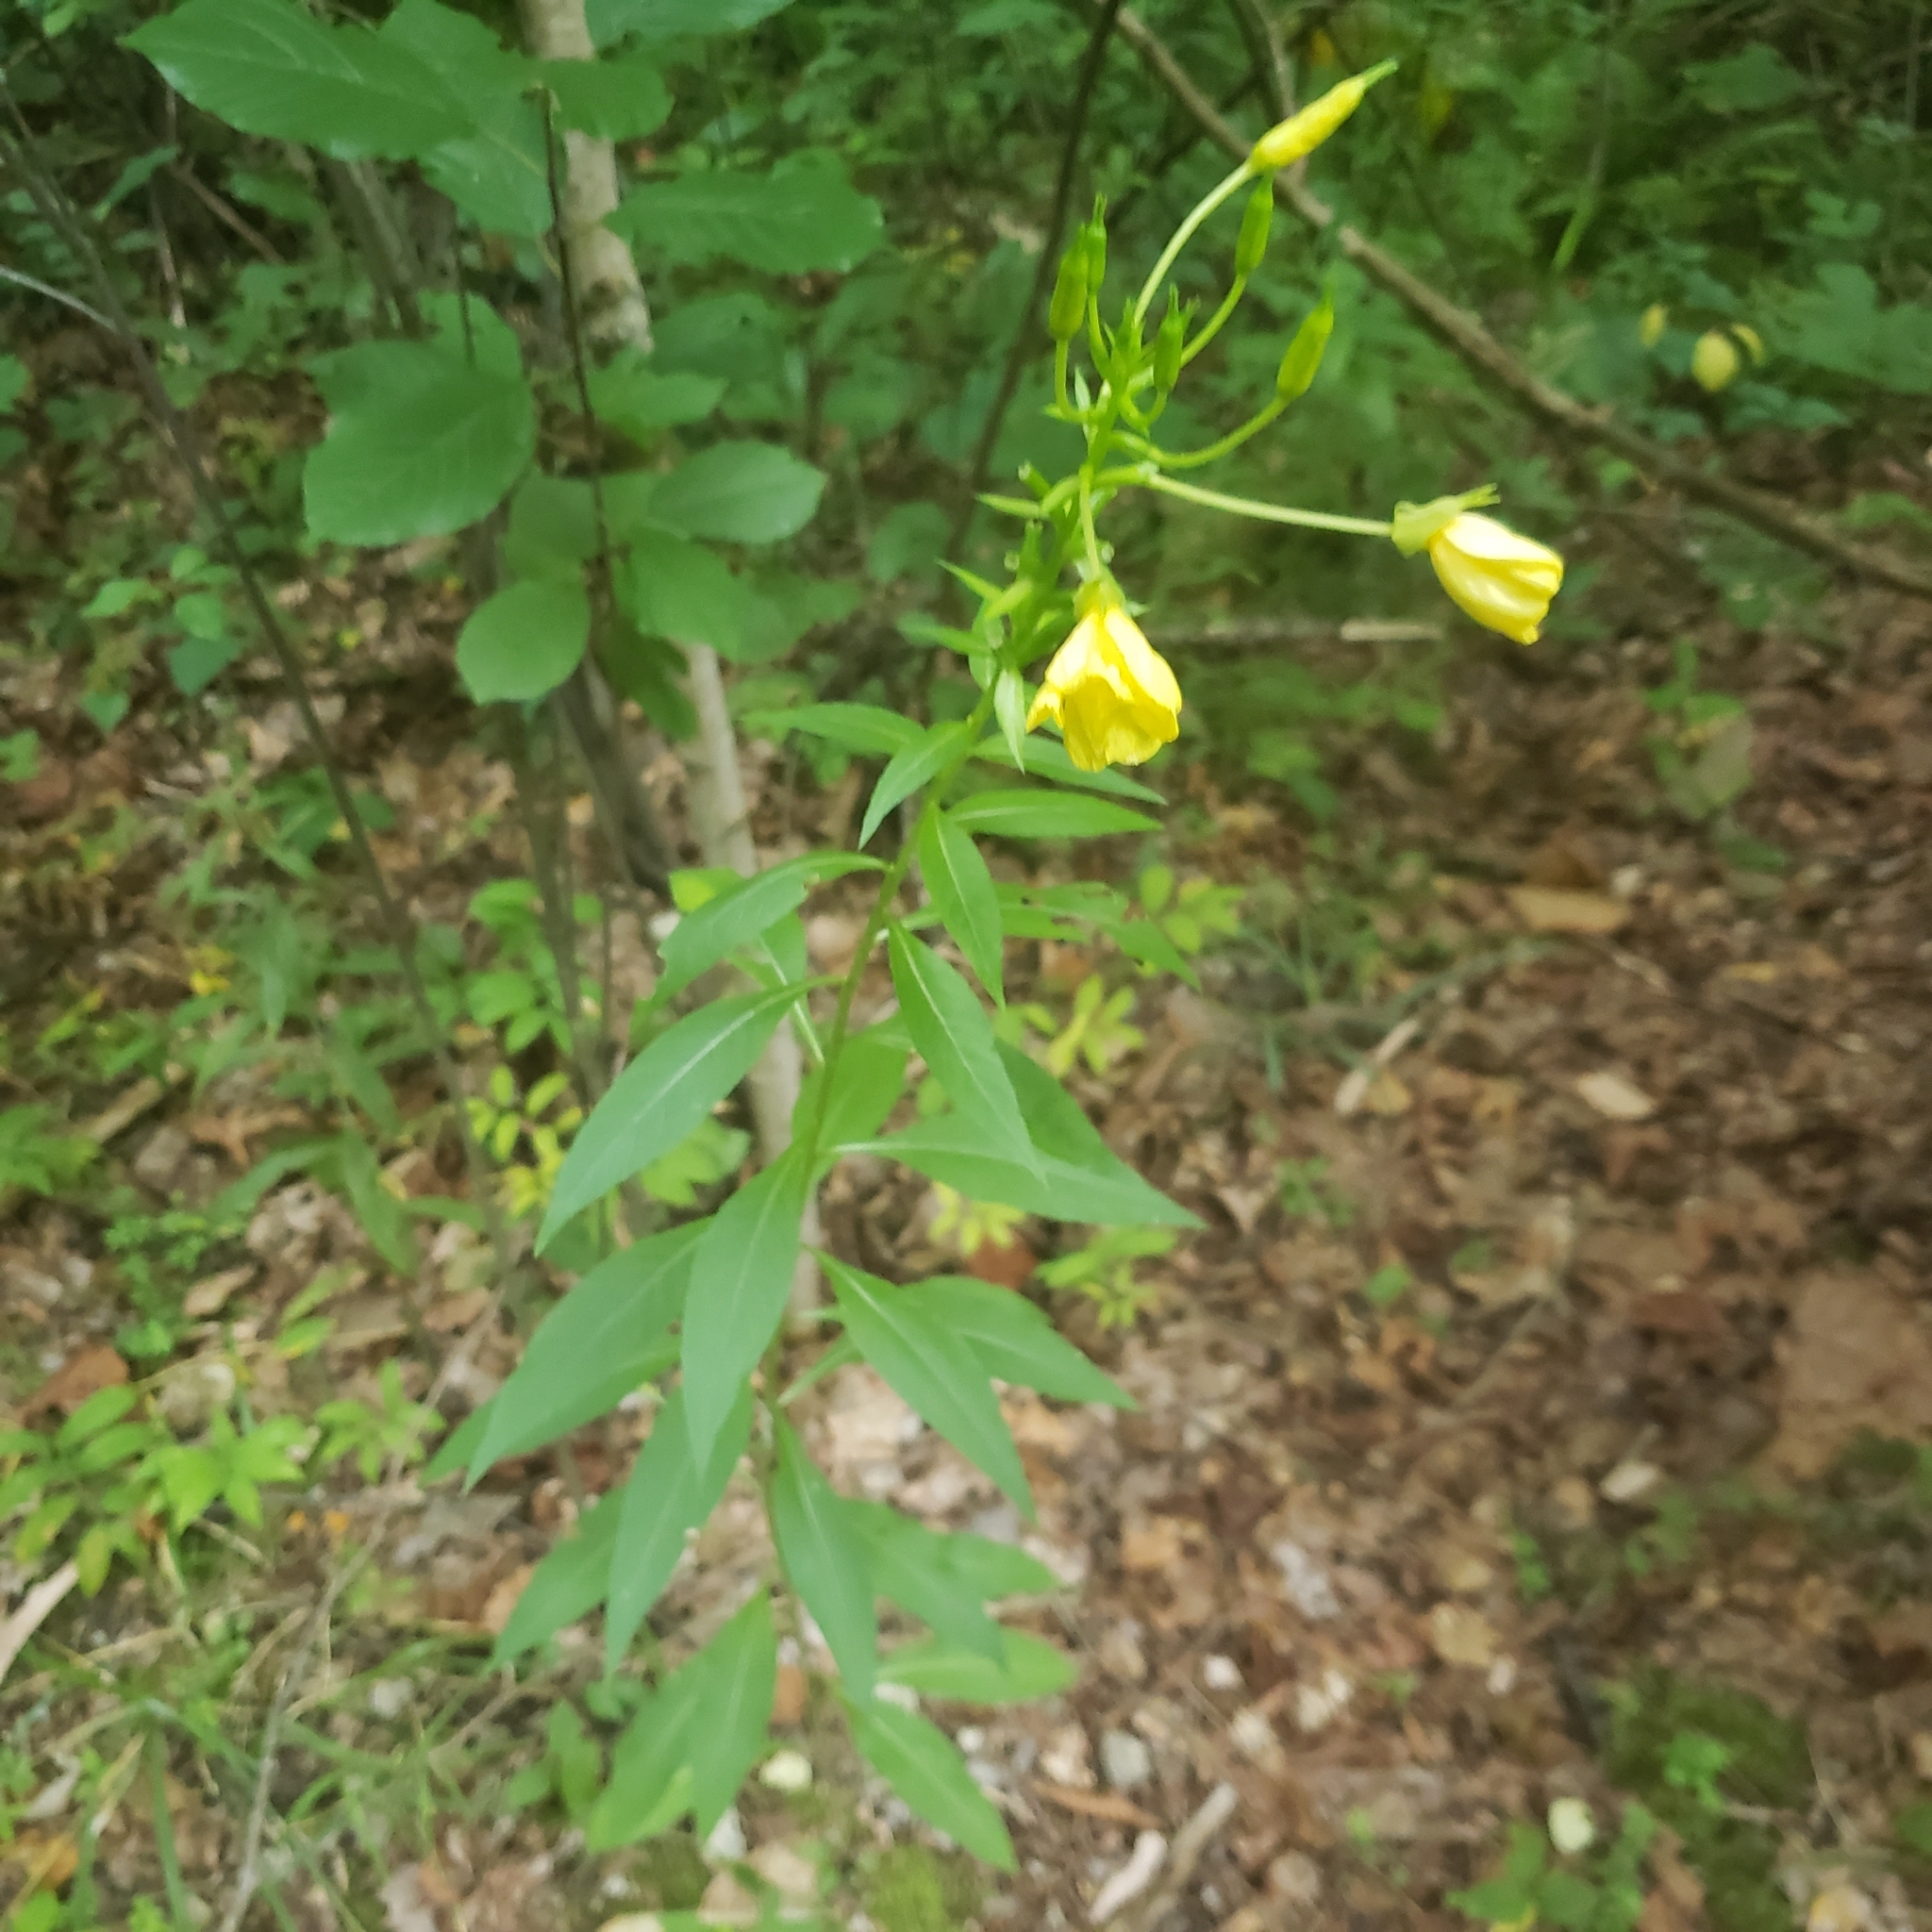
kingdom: Plantae
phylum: Tracheophyta
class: Magnoliopsida
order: Myrtales
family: Onagraceae
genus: Oenothera
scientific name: Oenothera biennis
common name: Common evening-primrose
